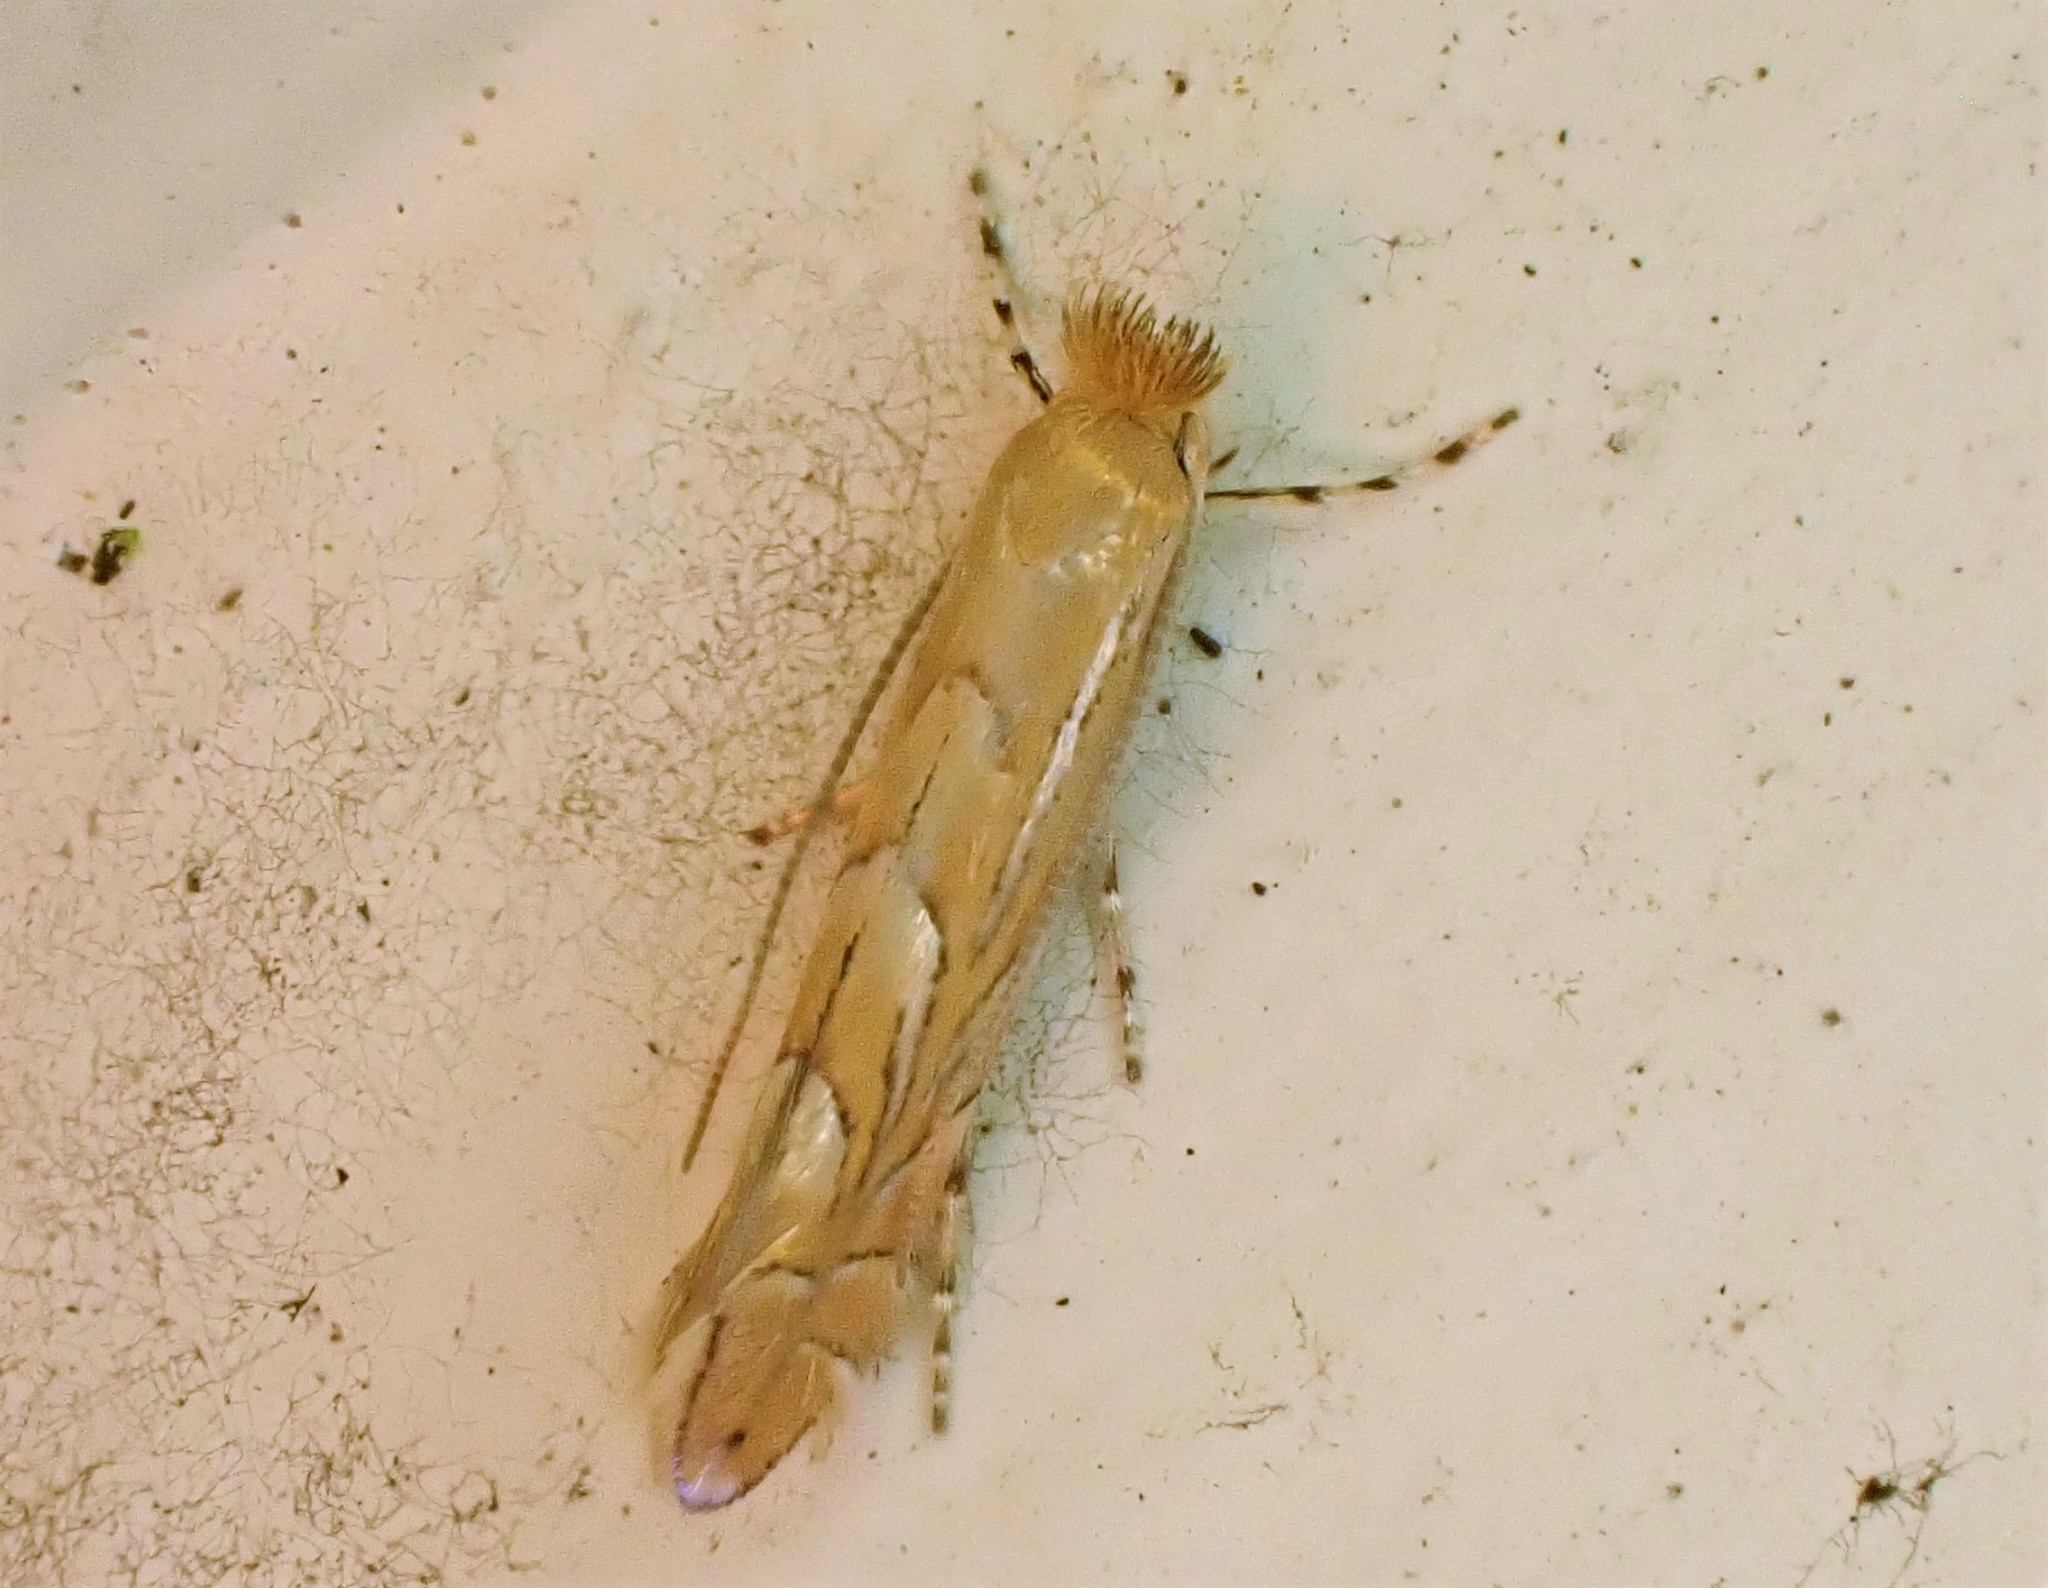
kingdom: Animalia
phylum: Arthropoda
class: Insecta
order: Lepidoptera
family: Gracillariidae
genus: Phyllonorycter
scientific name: Phyllonorycter messaniella
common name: Garden midget
